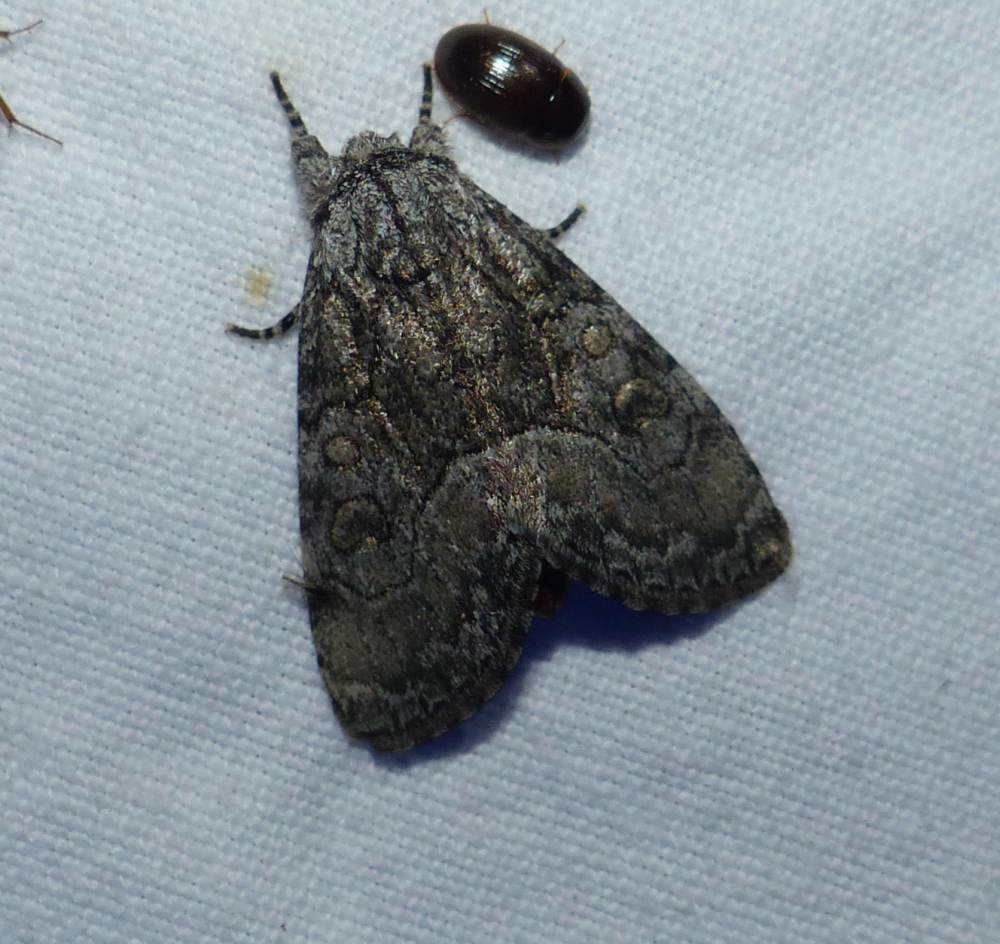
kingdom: Animalia
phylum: Arthropoda
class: Insecta
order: Lepidoptera
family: Noctuidae
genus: Raphia
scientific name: Raphia frater
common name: Brother
